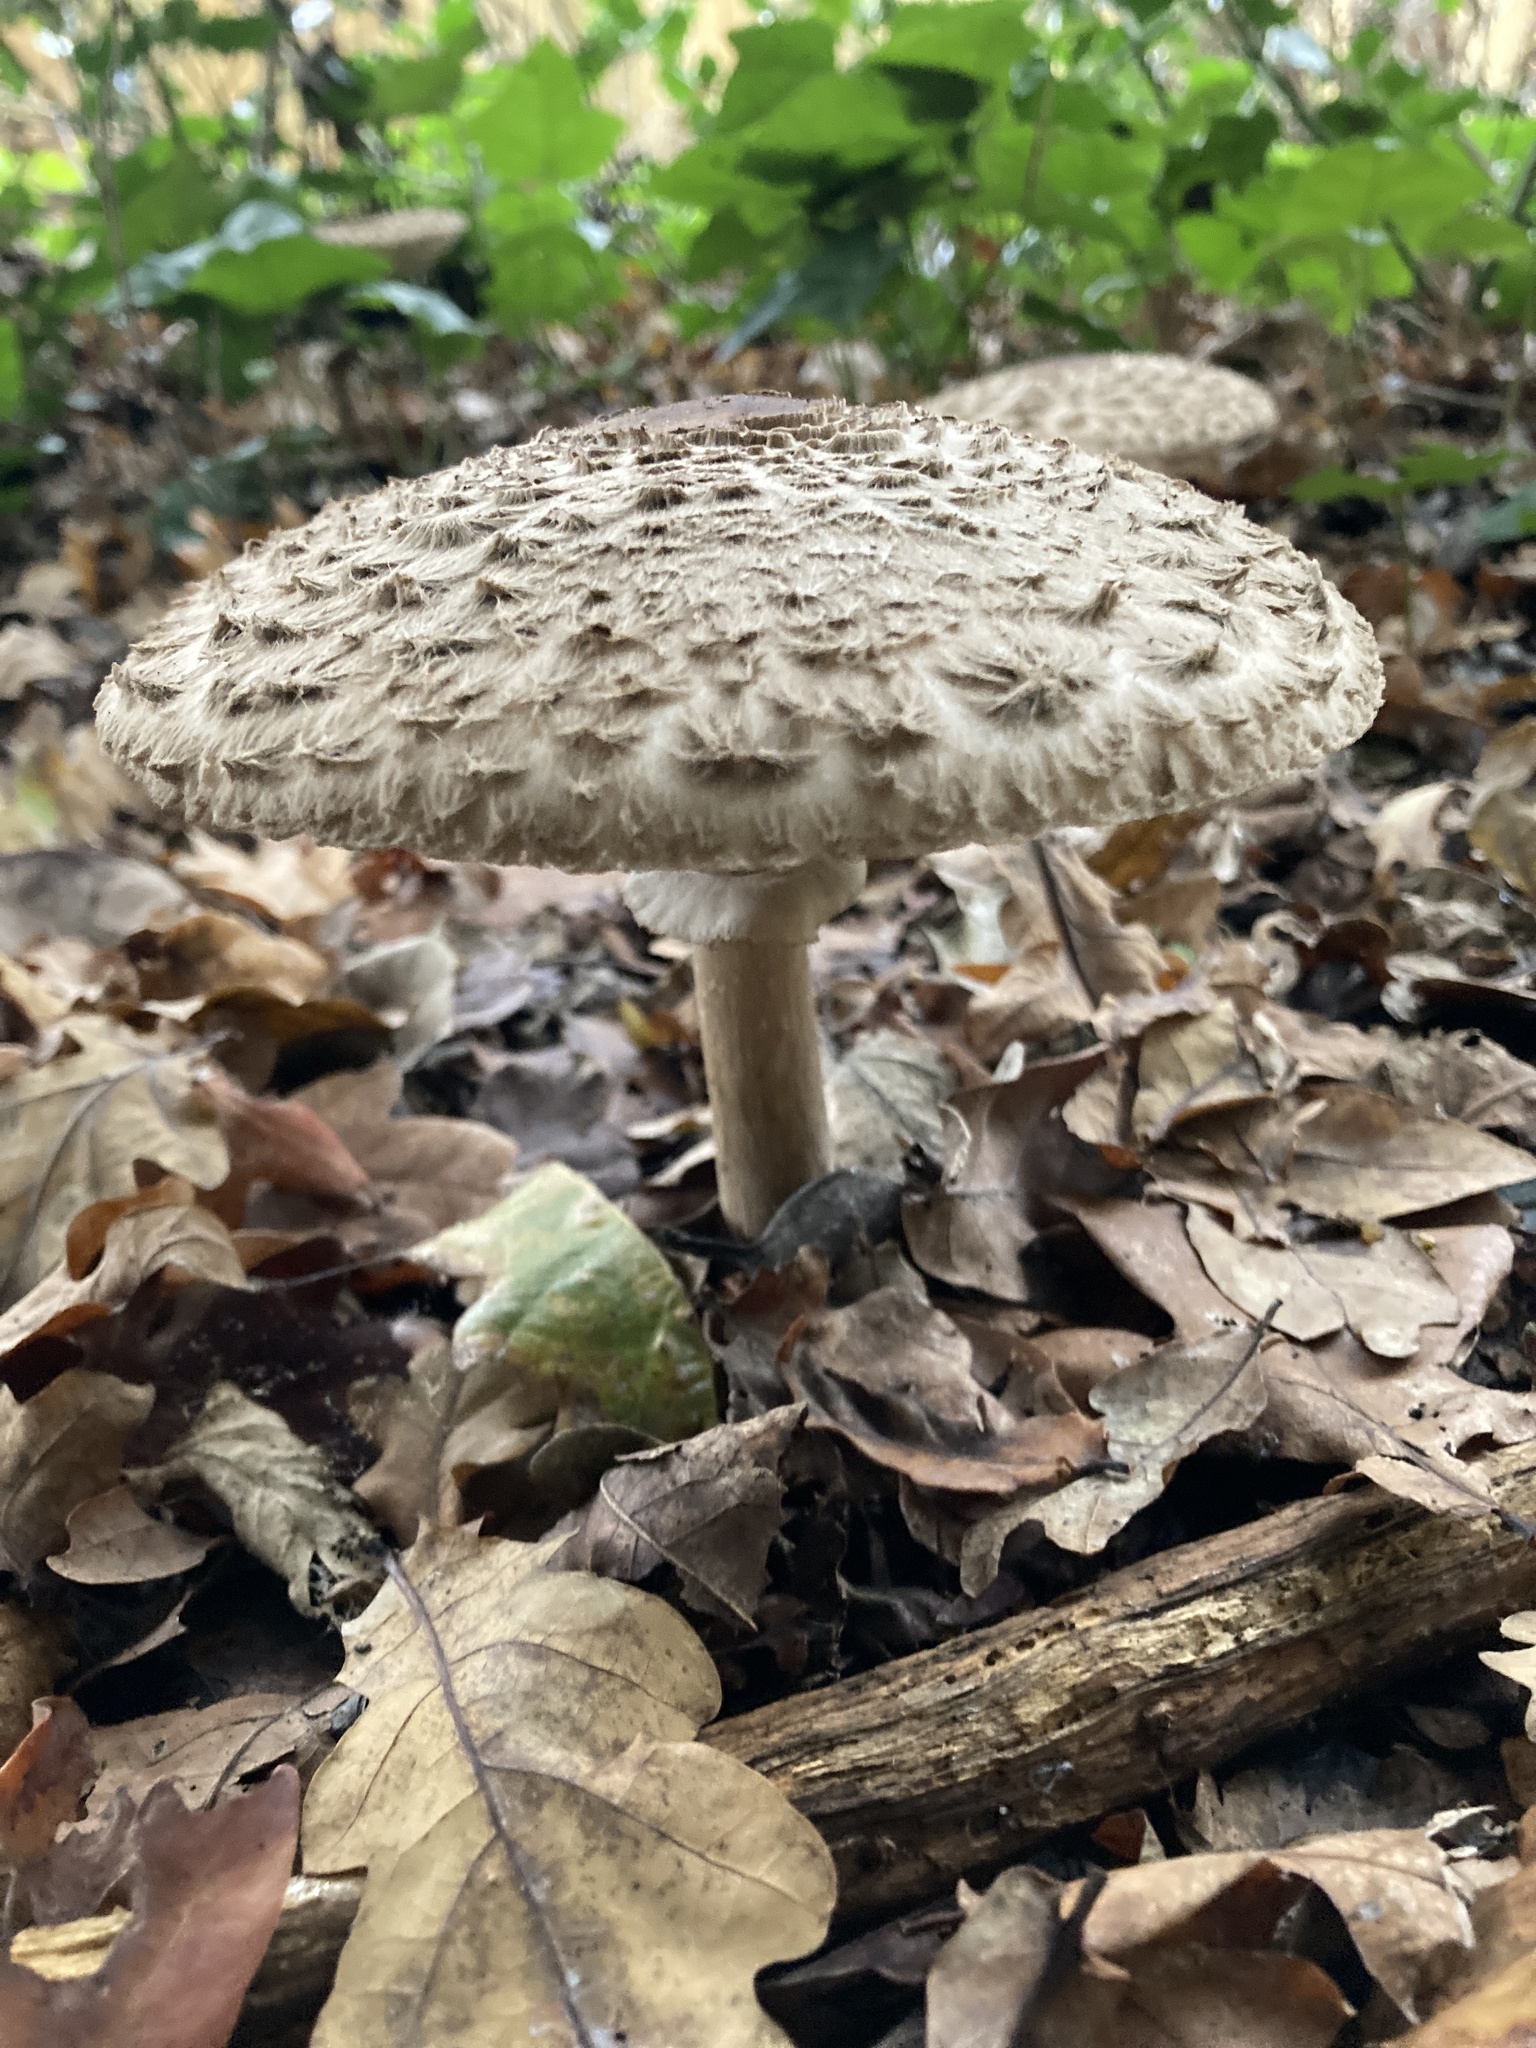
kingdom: Fungi
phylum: Basidiomycota
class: Agaricomycetes
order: Agaricales
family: Agaricaceae
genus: Chlorophyllum
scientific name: Chlorophyllum olivieri
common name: Conifer parasol
